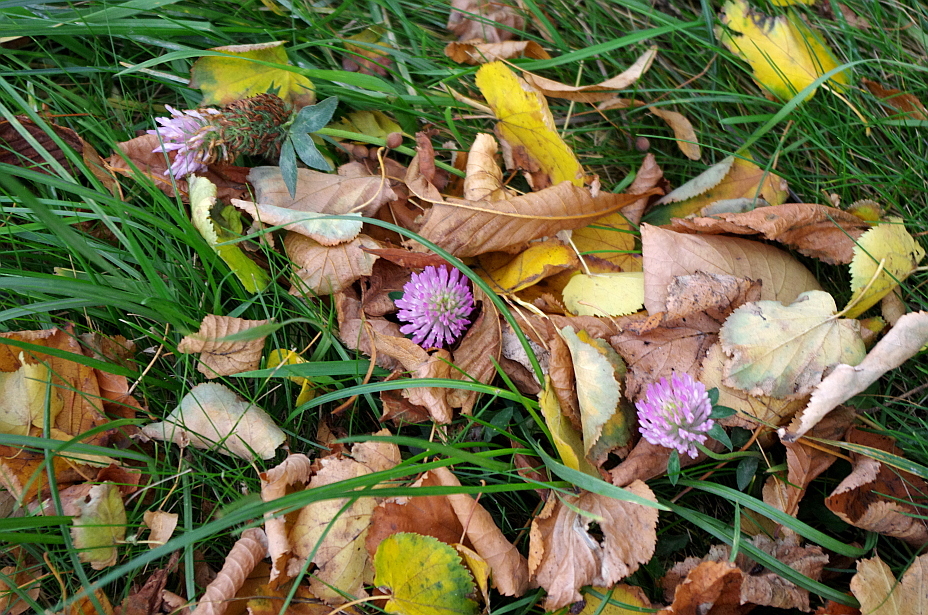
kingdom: Plantae
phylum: Tracheophyta
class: Magnoliopsida
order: Fabales
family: Fabaceae
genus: Trifolium
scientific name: Trifolium pratense
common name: Red clover
